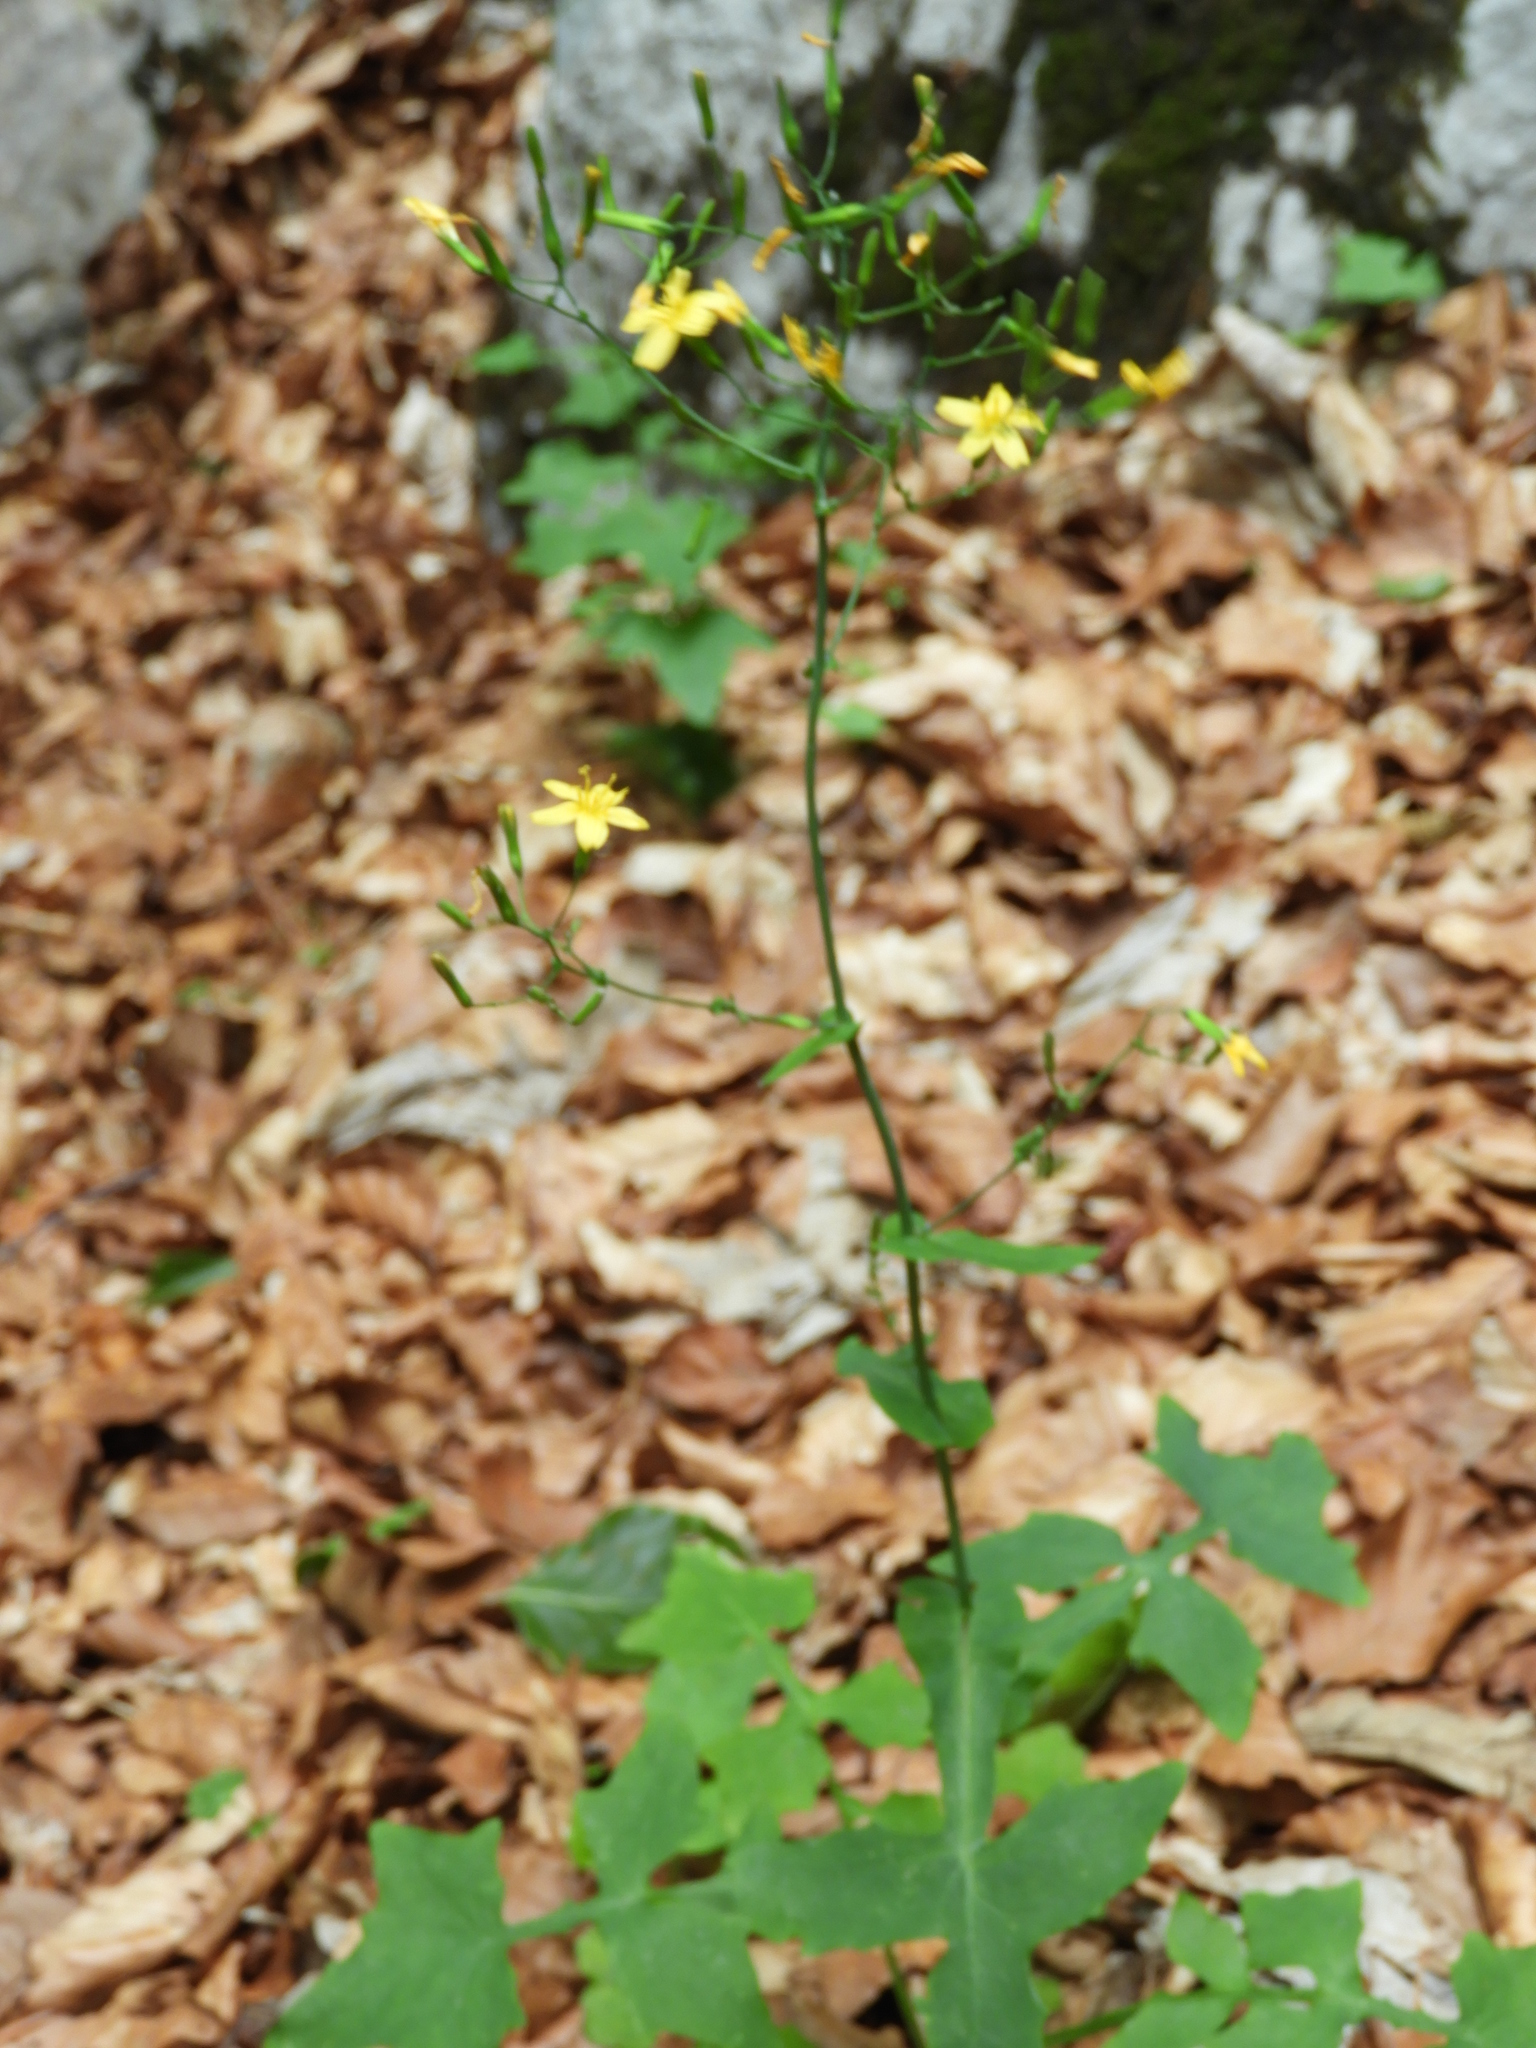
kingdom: Plantae
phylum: Tracheophyta
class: Magnoliopsida
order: Asterales
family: Asteraceae
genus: Mycelis
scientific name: Mycelis muralis
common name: Wall lettuce
